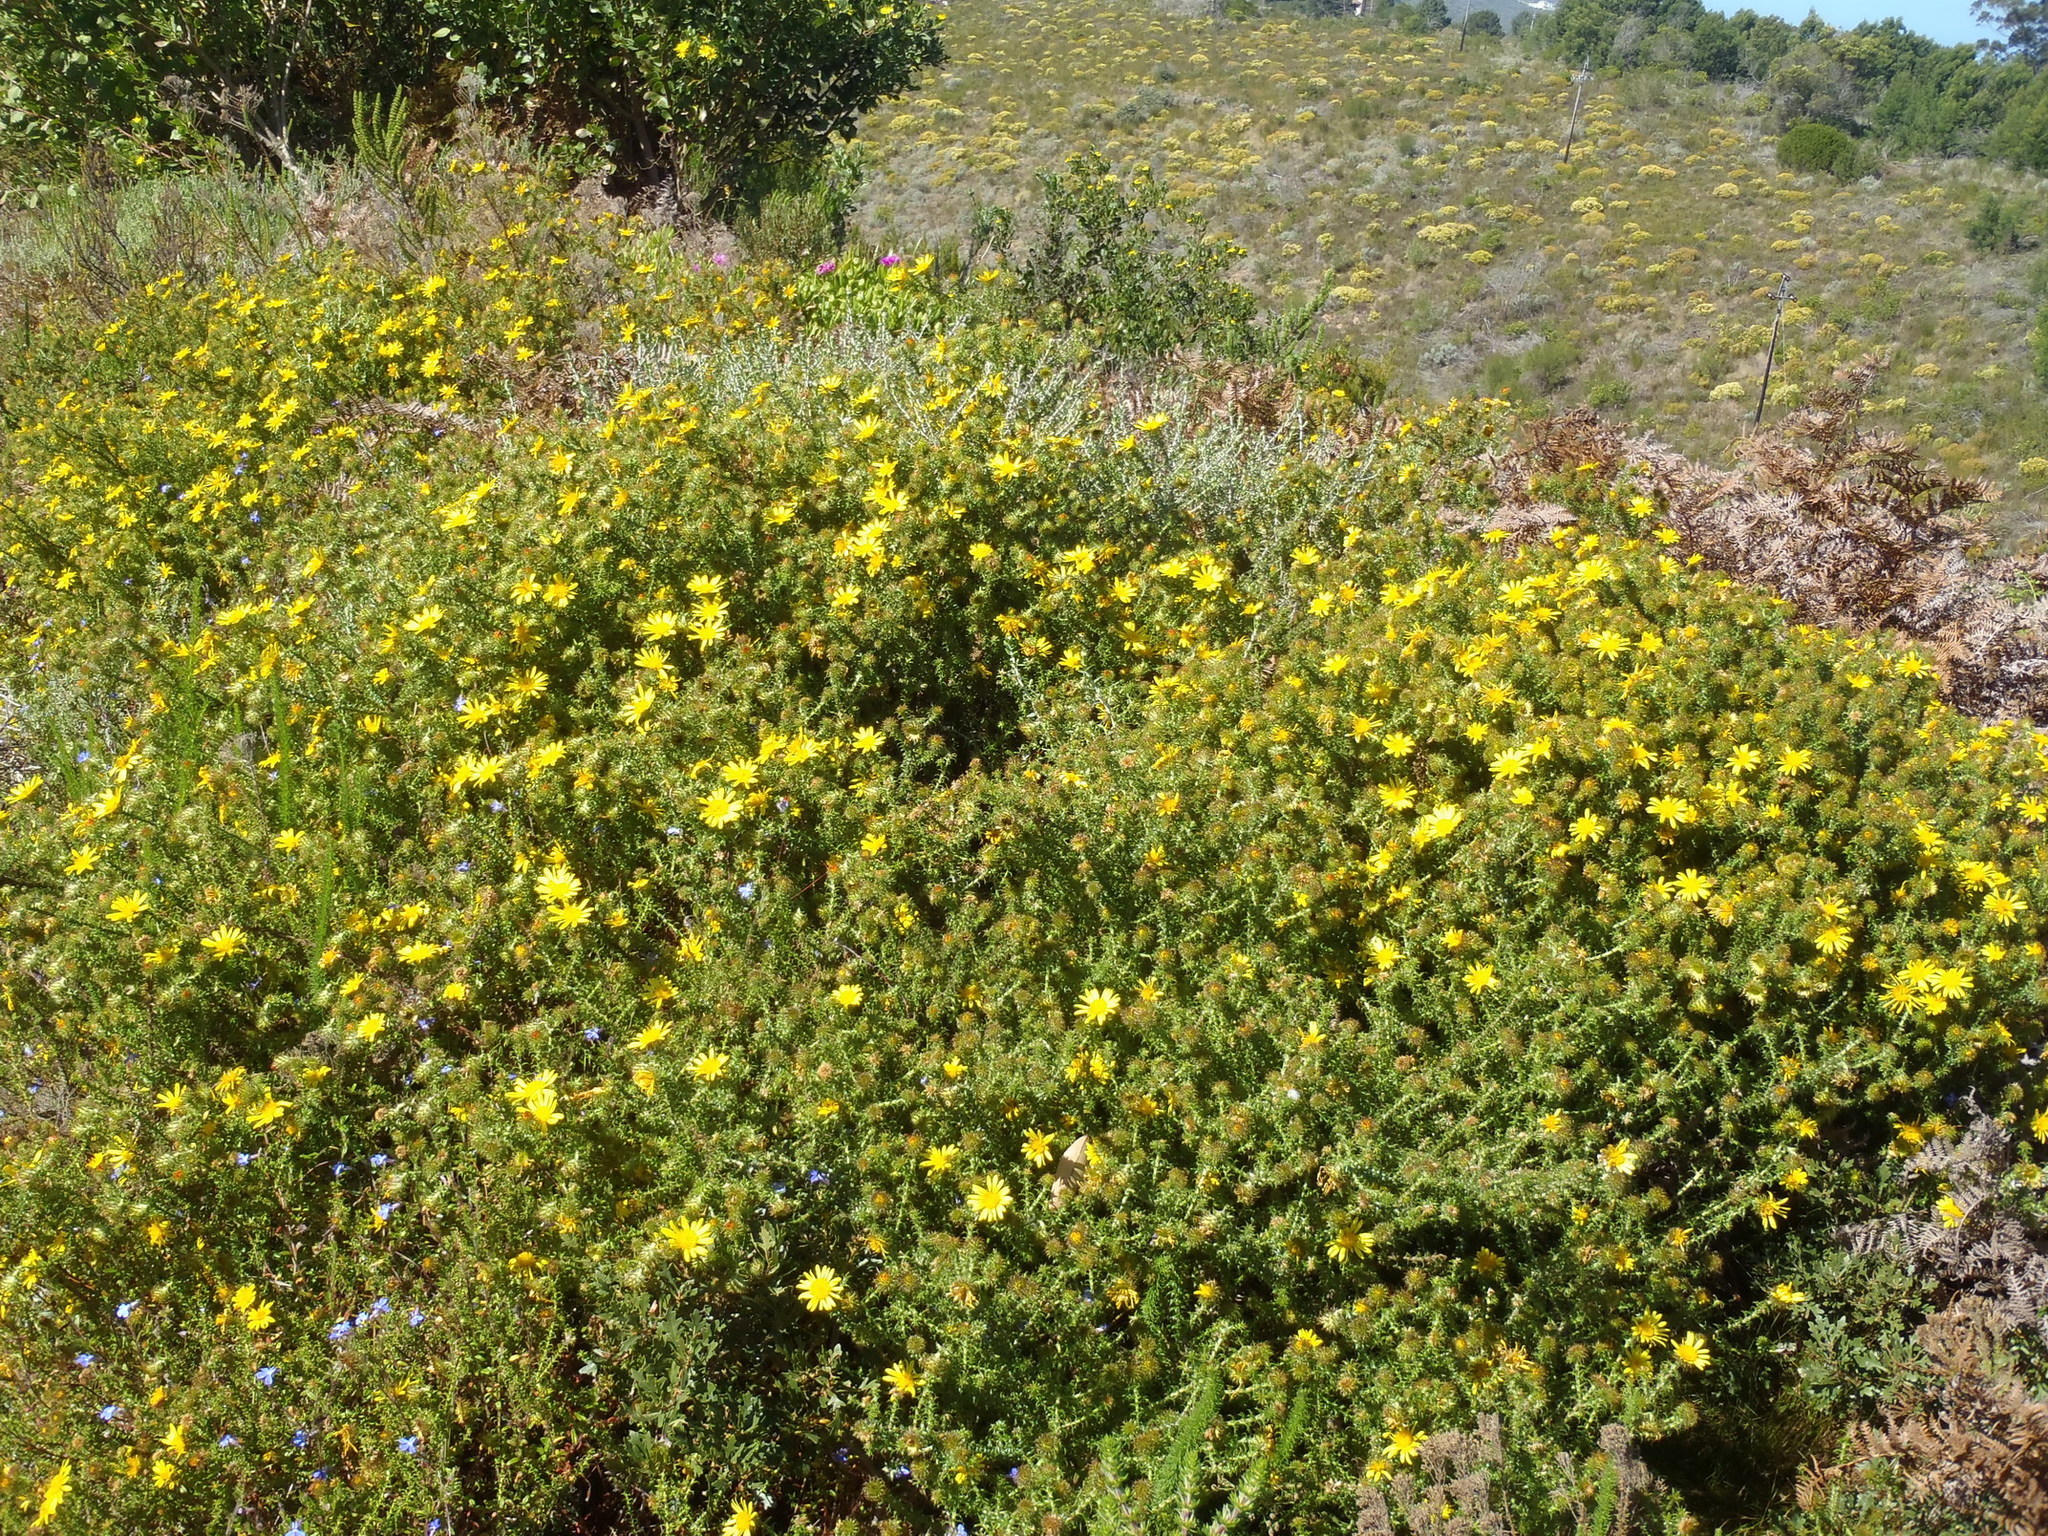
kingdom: Plantae
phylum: Tracheophyta
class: Magnoliopsida
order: Asterales
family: Asteraceae
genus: Cullumia
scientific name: Cullumia decurrens
